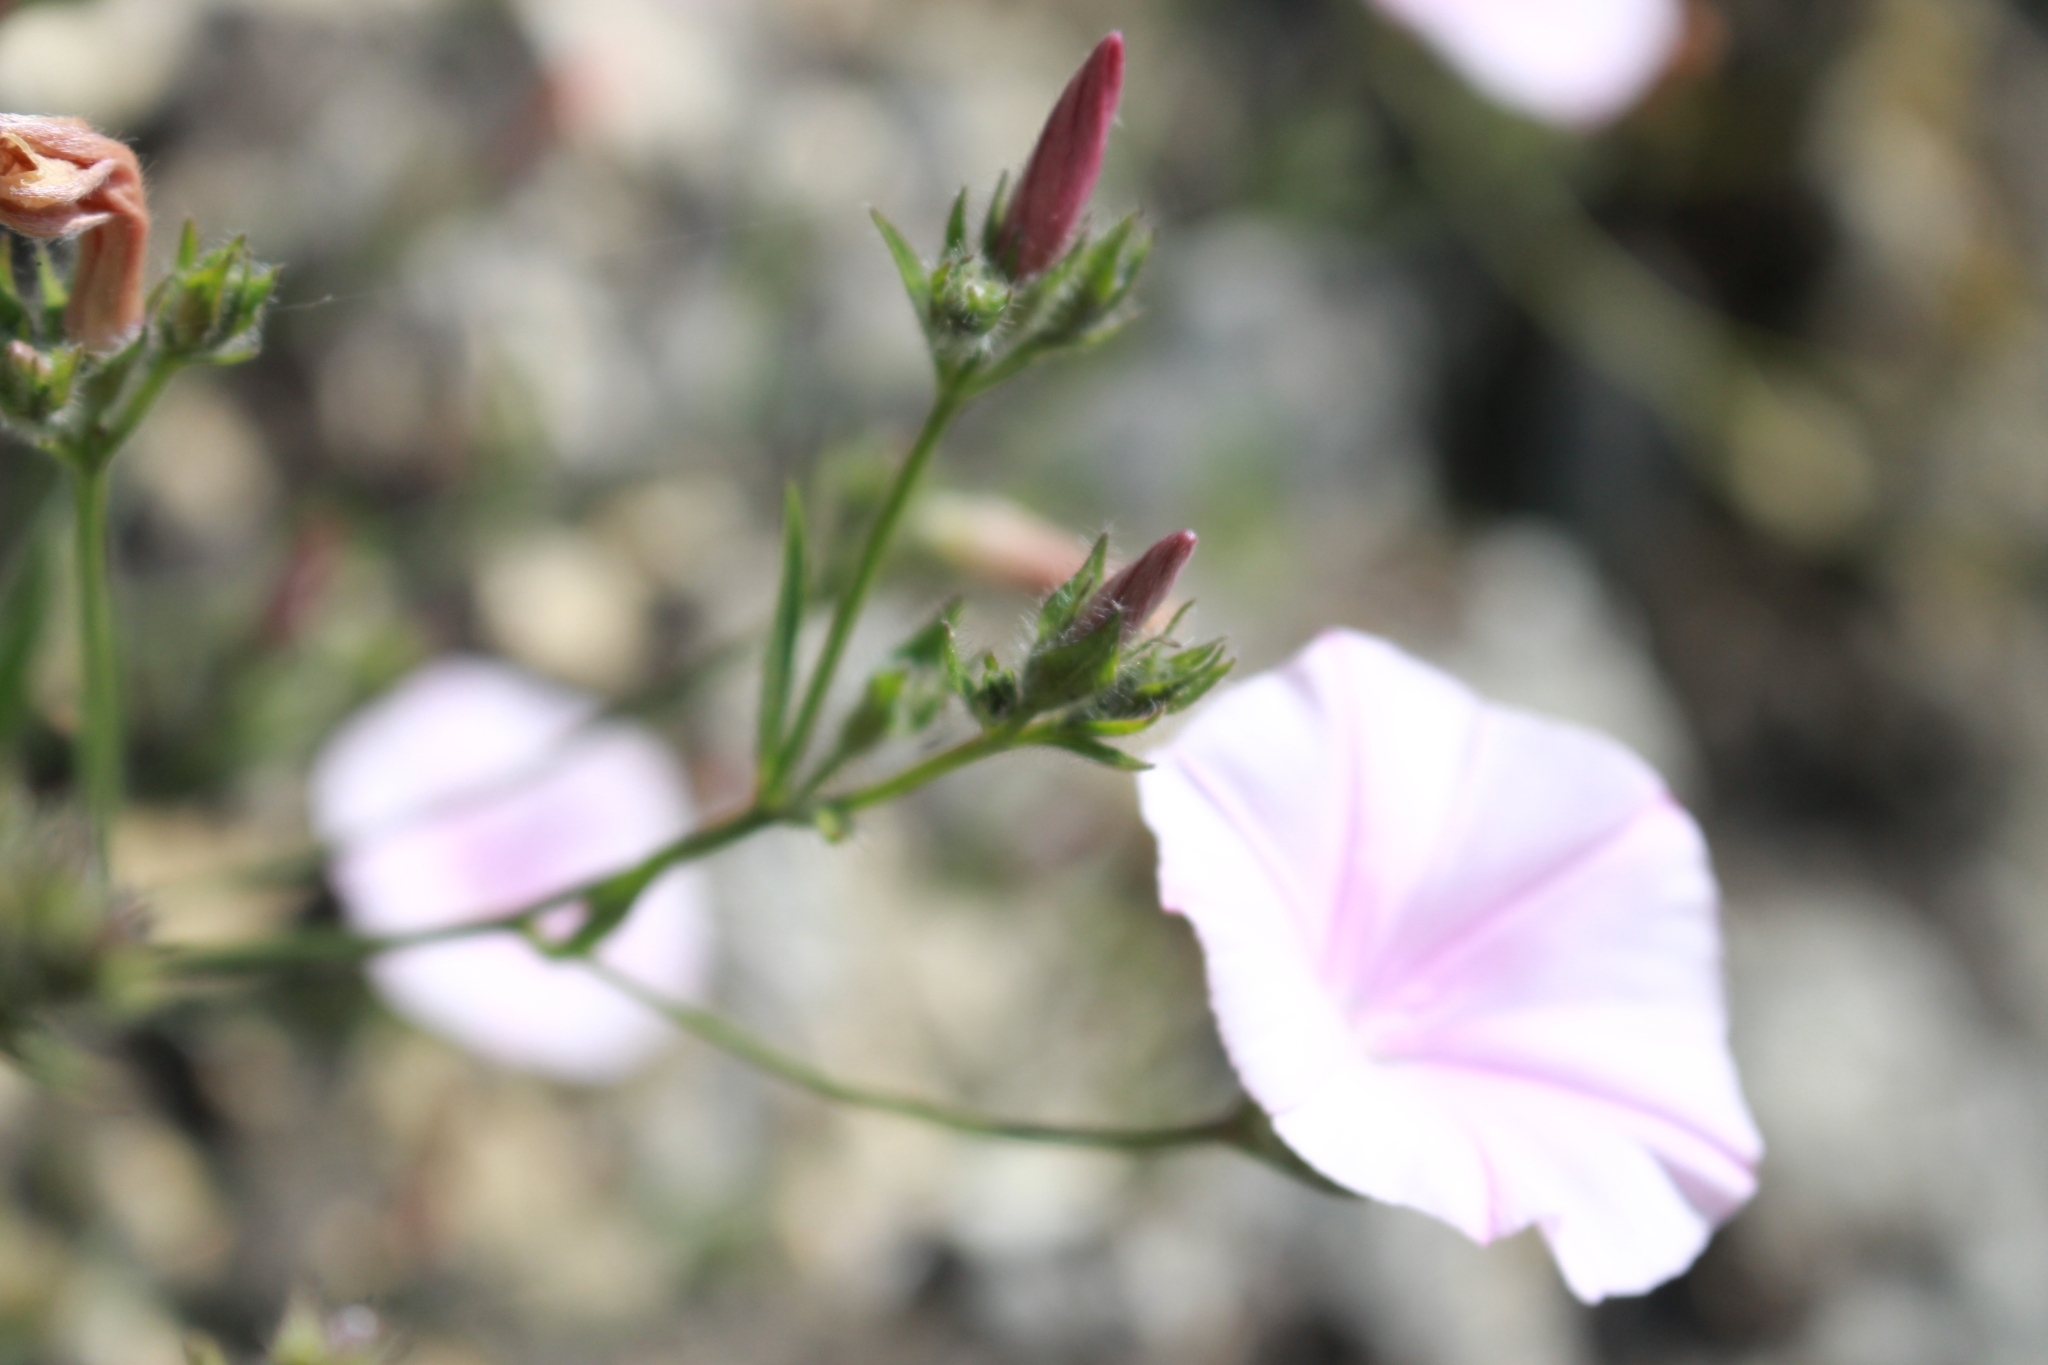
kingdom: Plantae
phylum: Tracheophyta
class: Magnoliopsida
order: Solanales
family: Convolvulaceae
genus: Convolvulus
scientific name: Convolvulus cantabrica
